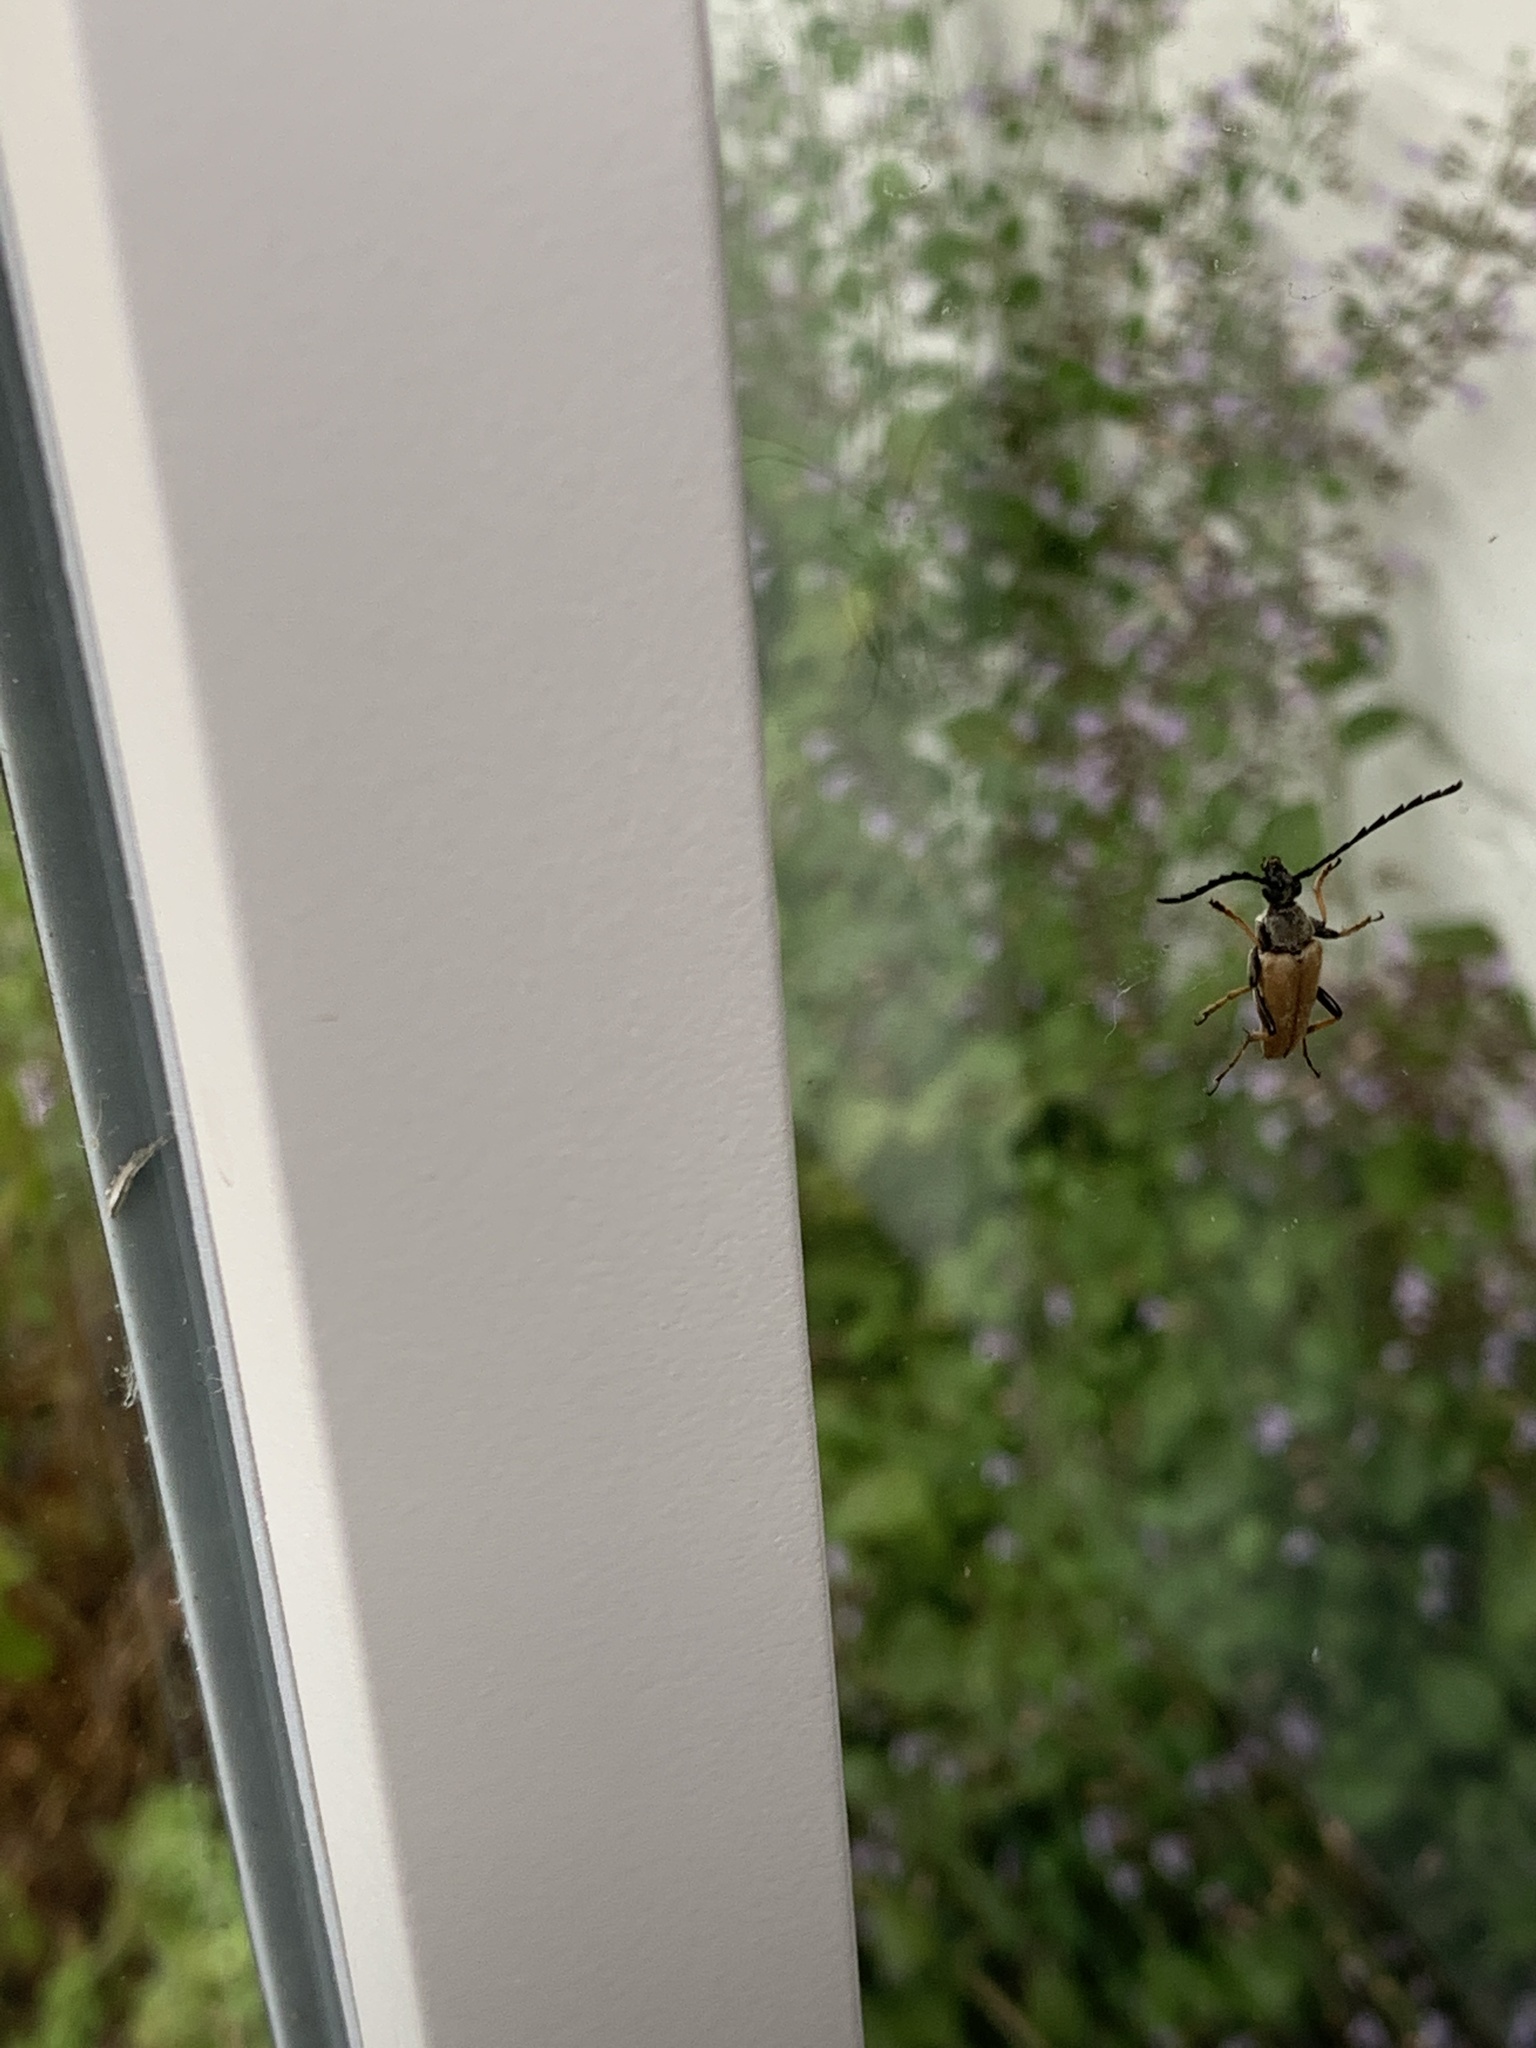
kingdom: Animalia
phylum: Arthropoda
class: Insecta
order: Coleoptera
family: Cerambycidae
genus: Stictoleptura
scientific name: Stictoleptura rubra
